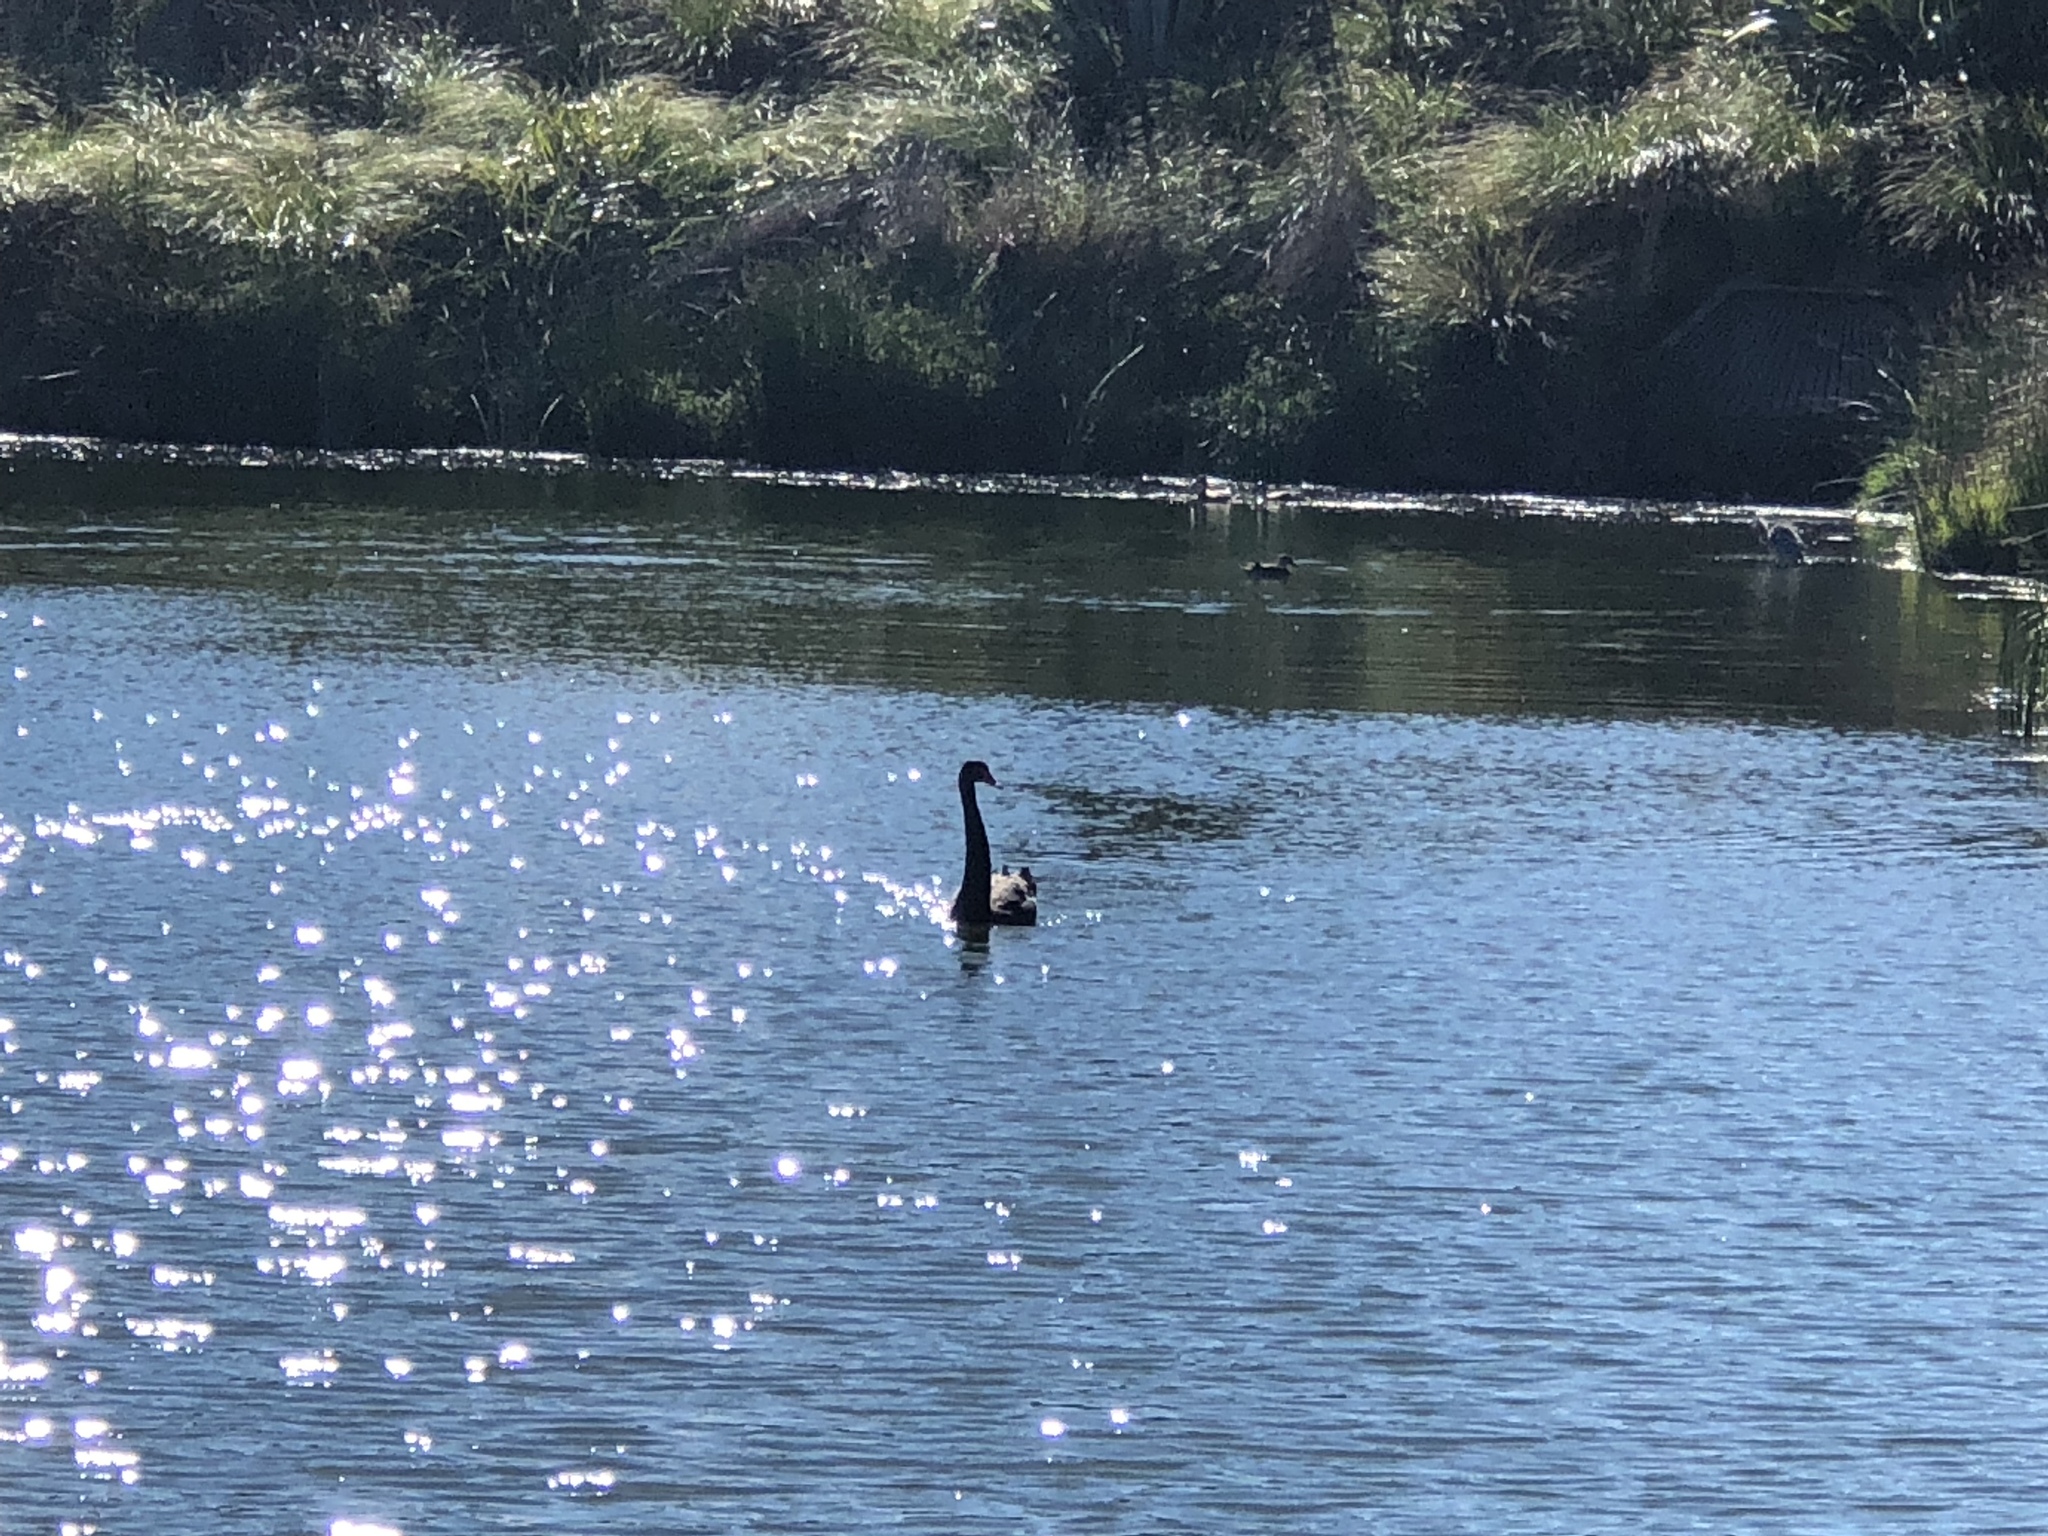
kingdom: Animalia
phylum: Chordata
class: Aves
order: Anseriformes
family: Anatidae
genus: Cygnus
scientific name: Cygnus atratus
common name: Black swan
